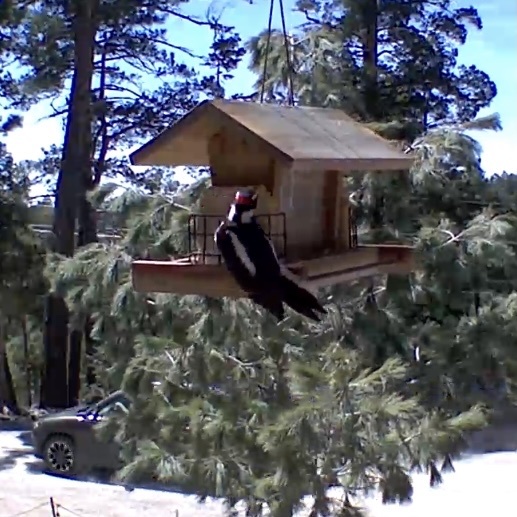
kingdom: Animalia
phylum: Chordata
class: Aves
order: Piciformes
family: Picidae
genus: Leuconotopicus
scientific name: Leuconotopicus villosus
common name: Hairy woodpecker
